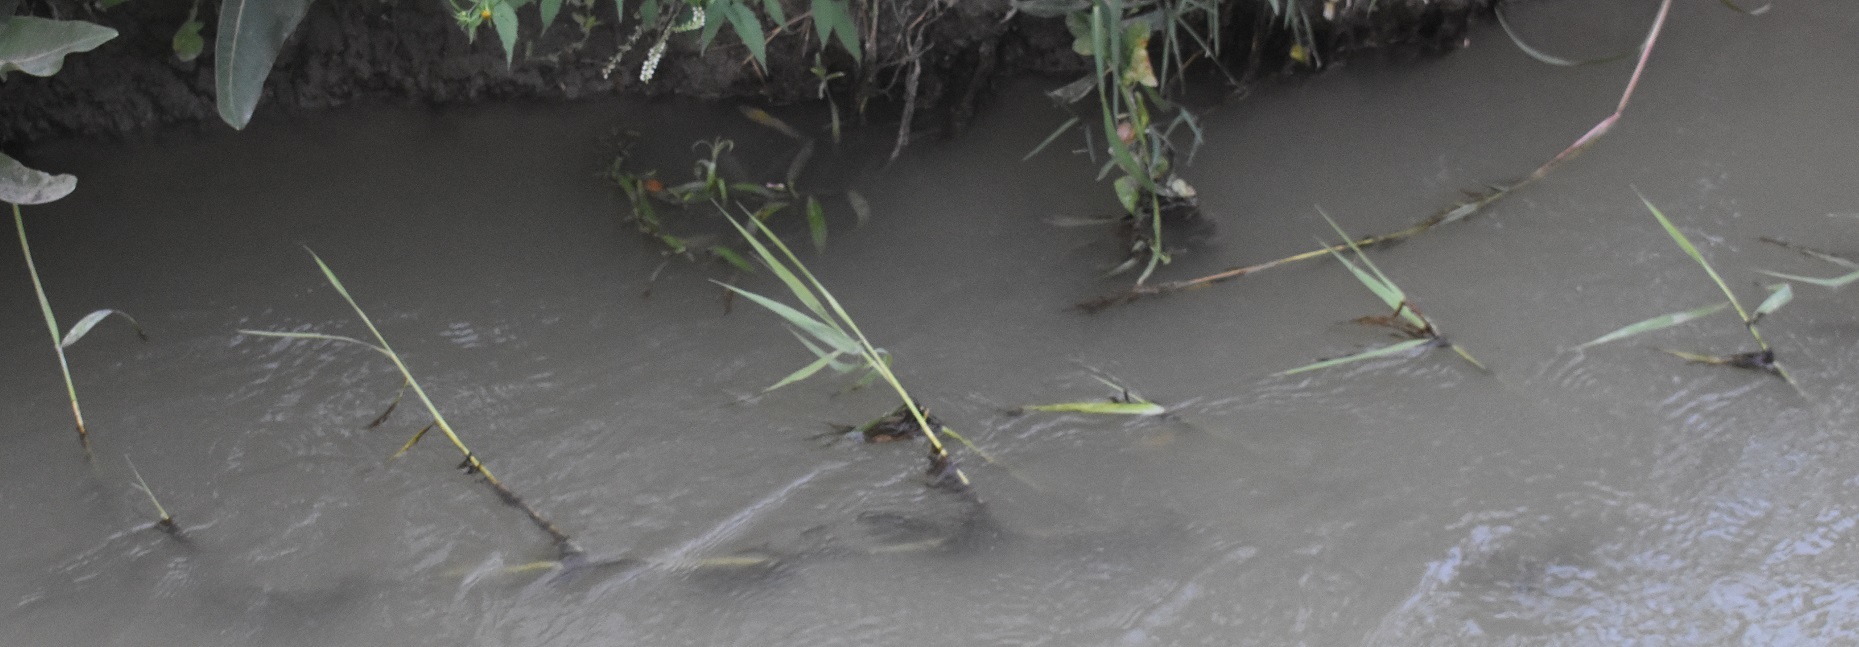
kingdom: Plantae
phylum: Tracheophyta
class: Liliopsida
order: Poales
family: Poaceae
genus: Phragmites
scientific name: Phragmites australis
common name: Common reed
